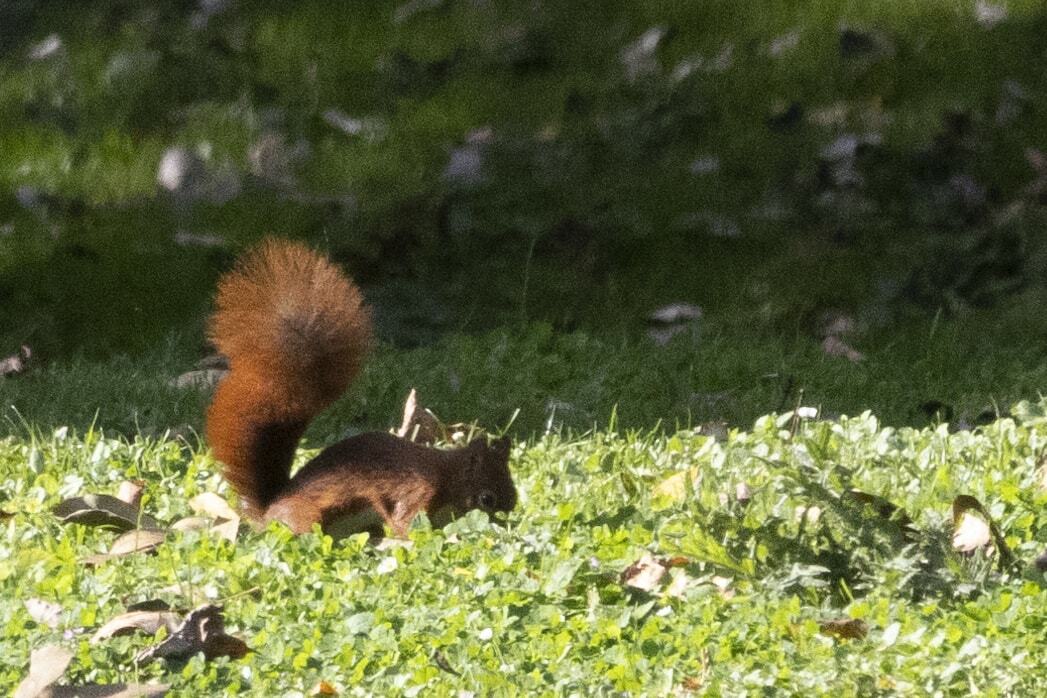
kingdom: Animalia
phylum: Chordata
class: Mammalia
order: Rodentia
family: Sciuridae
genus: Sciurus
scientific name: Sciurus vulgaris
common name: Eurasian red squirrel
